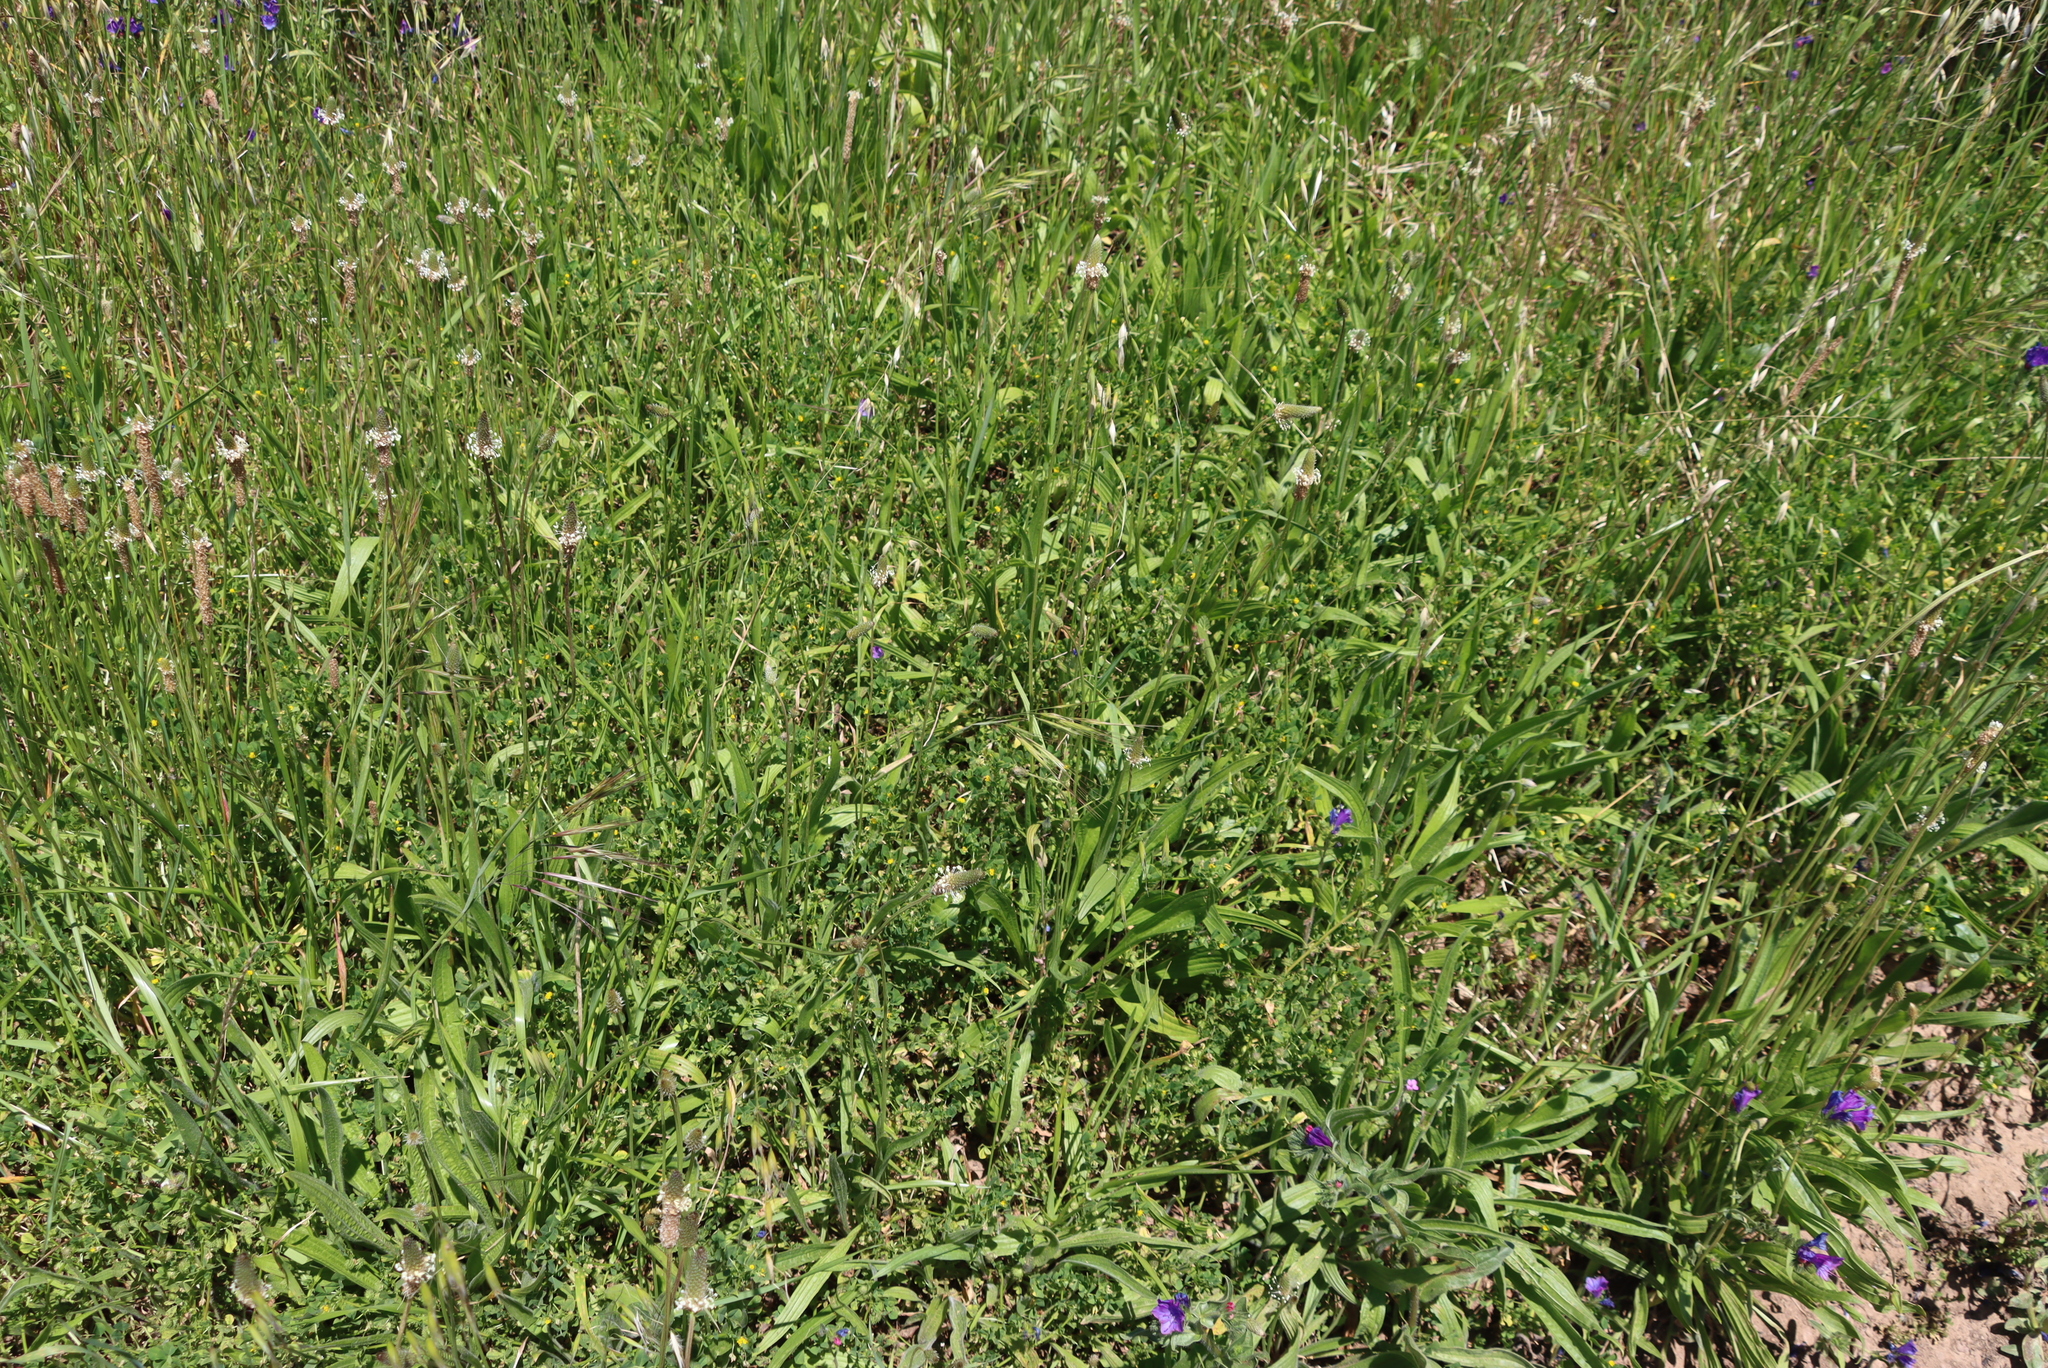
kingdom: Plantae
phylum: Tracheophyta
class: Magnoliopsida
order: Lamiales
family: Plantaginaceae
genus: Plantago
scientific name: Plantago lanceolata
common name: Ribwort plantain
